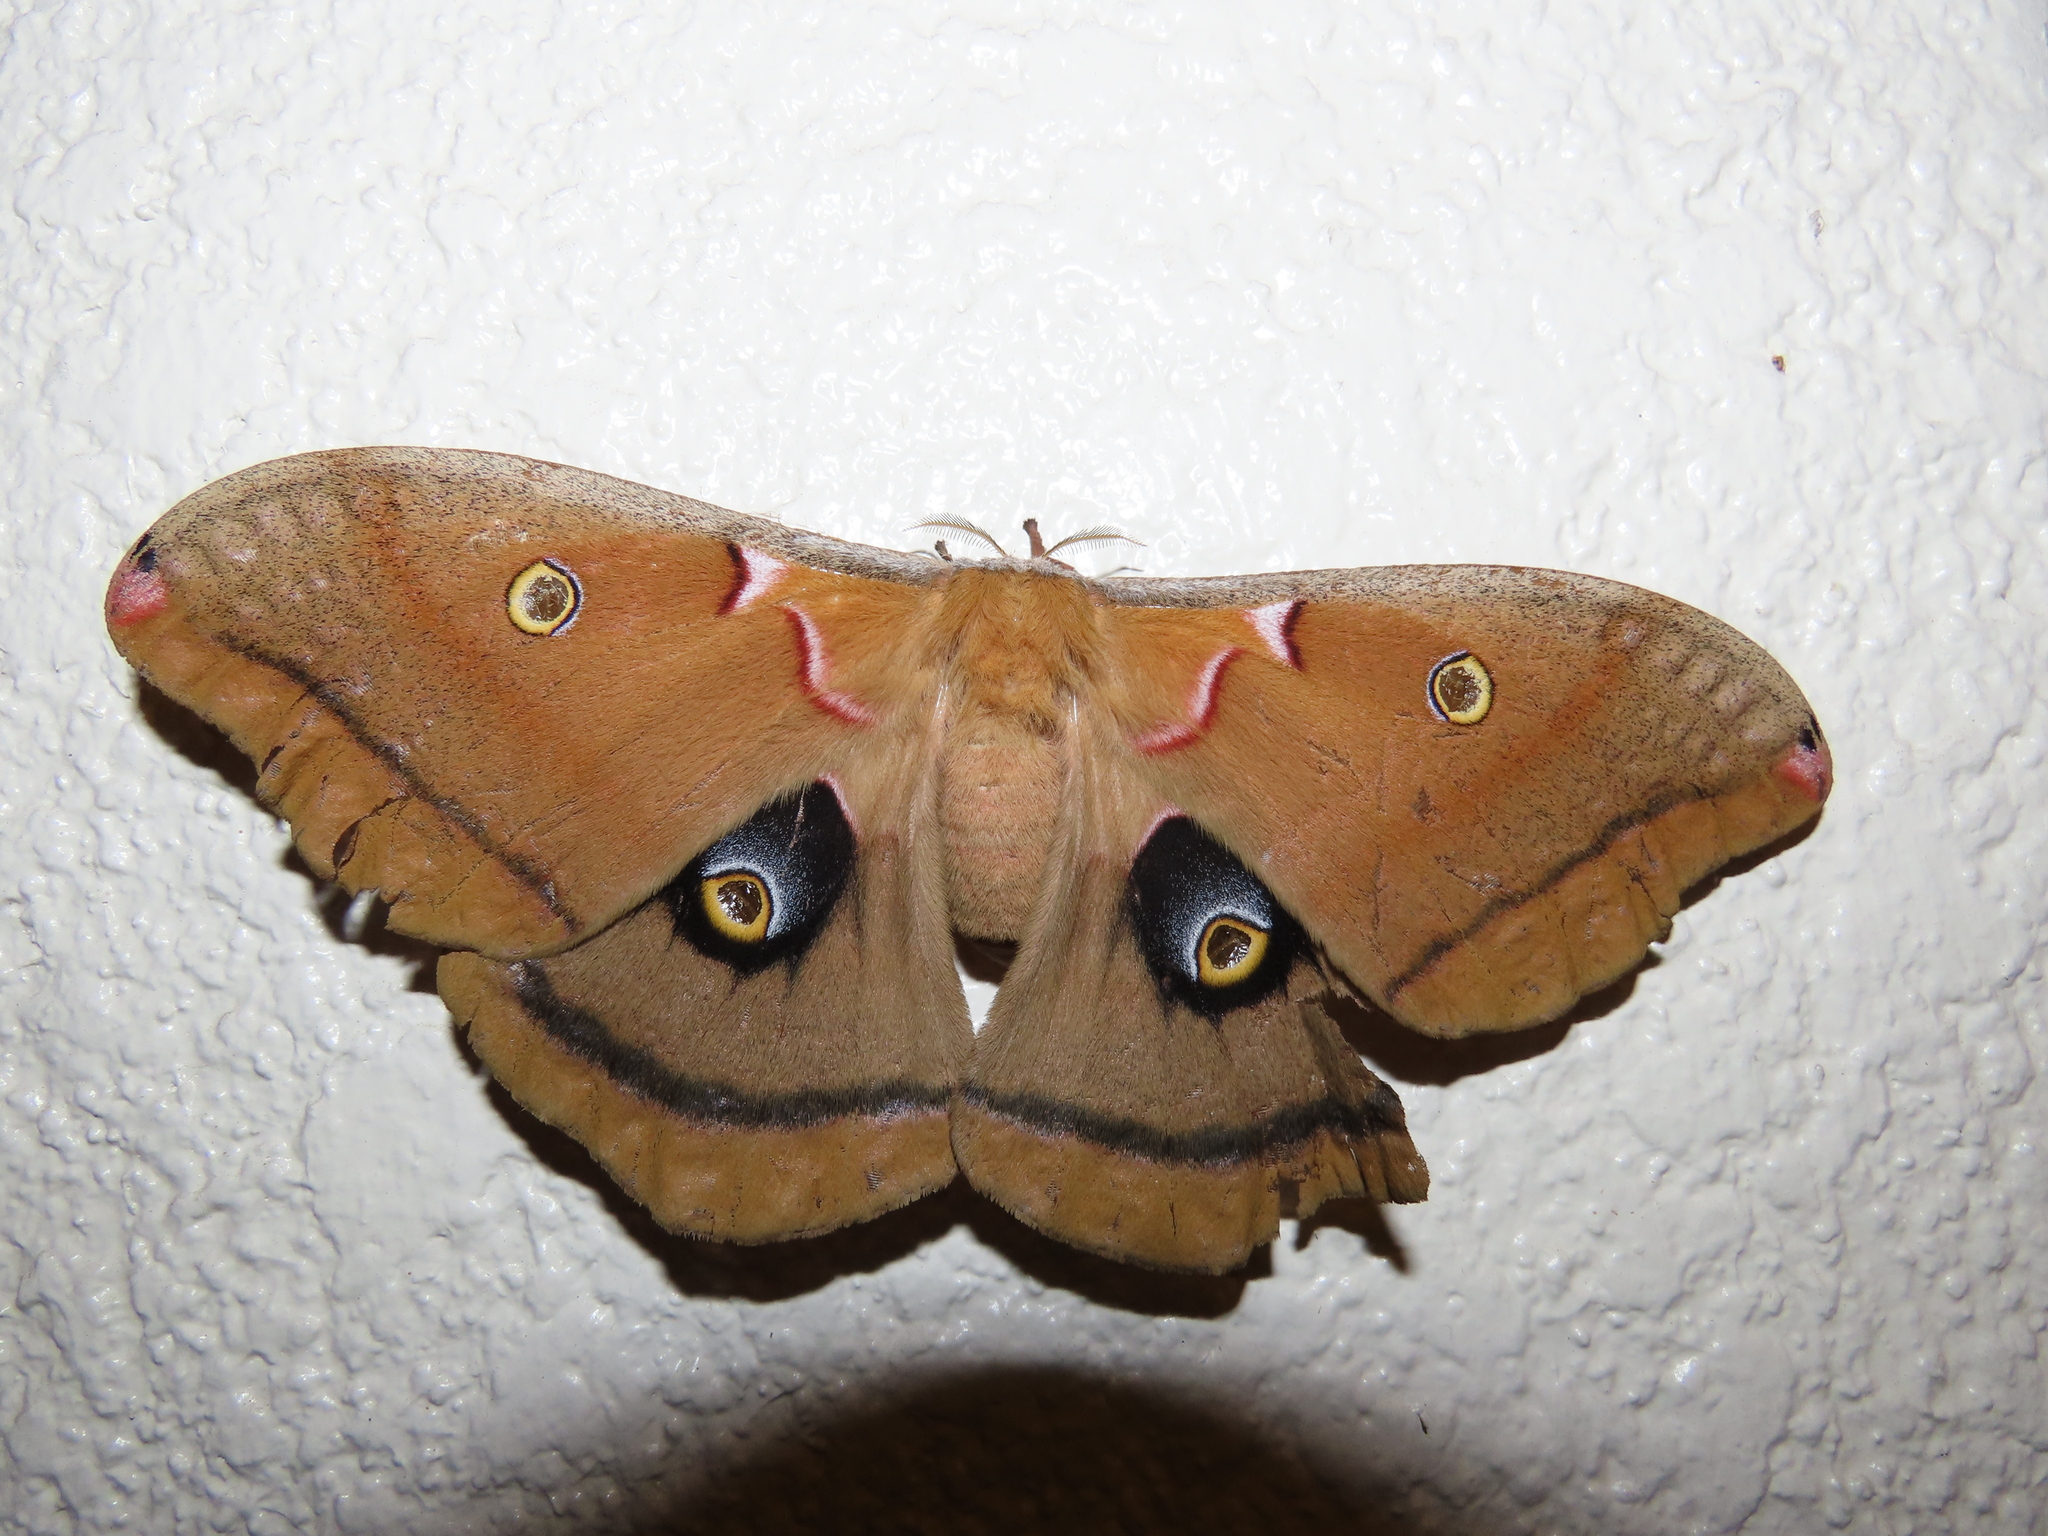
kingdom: Animalia
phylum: Arthropoda
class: Insecta
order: Lepidoptera
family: Saturniidae
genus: Antheraea
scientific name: Antheraea polyphemus
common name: Polyphemus moth
